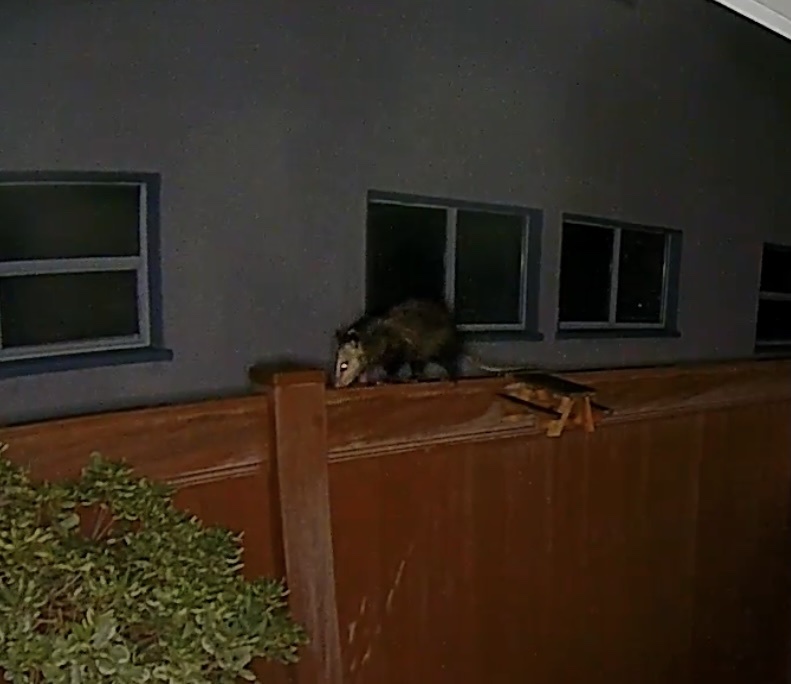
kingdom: Animalia
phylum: Chordata
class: Mammalia
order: Didelphimorphia
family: Didelphidae
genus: Didelphis
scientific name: Didelphis virginiana
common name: Virginia opossum
